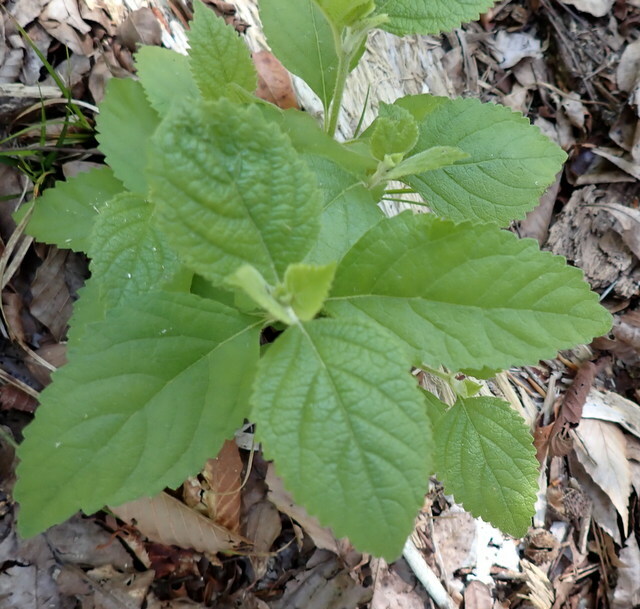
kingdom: Plantae
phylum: Tracheophyta
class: Magnoliopsida
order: Lamiales
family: Lamiaceae
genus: Callicarpa
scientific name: Callicarpa americana
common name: American beautyberry
